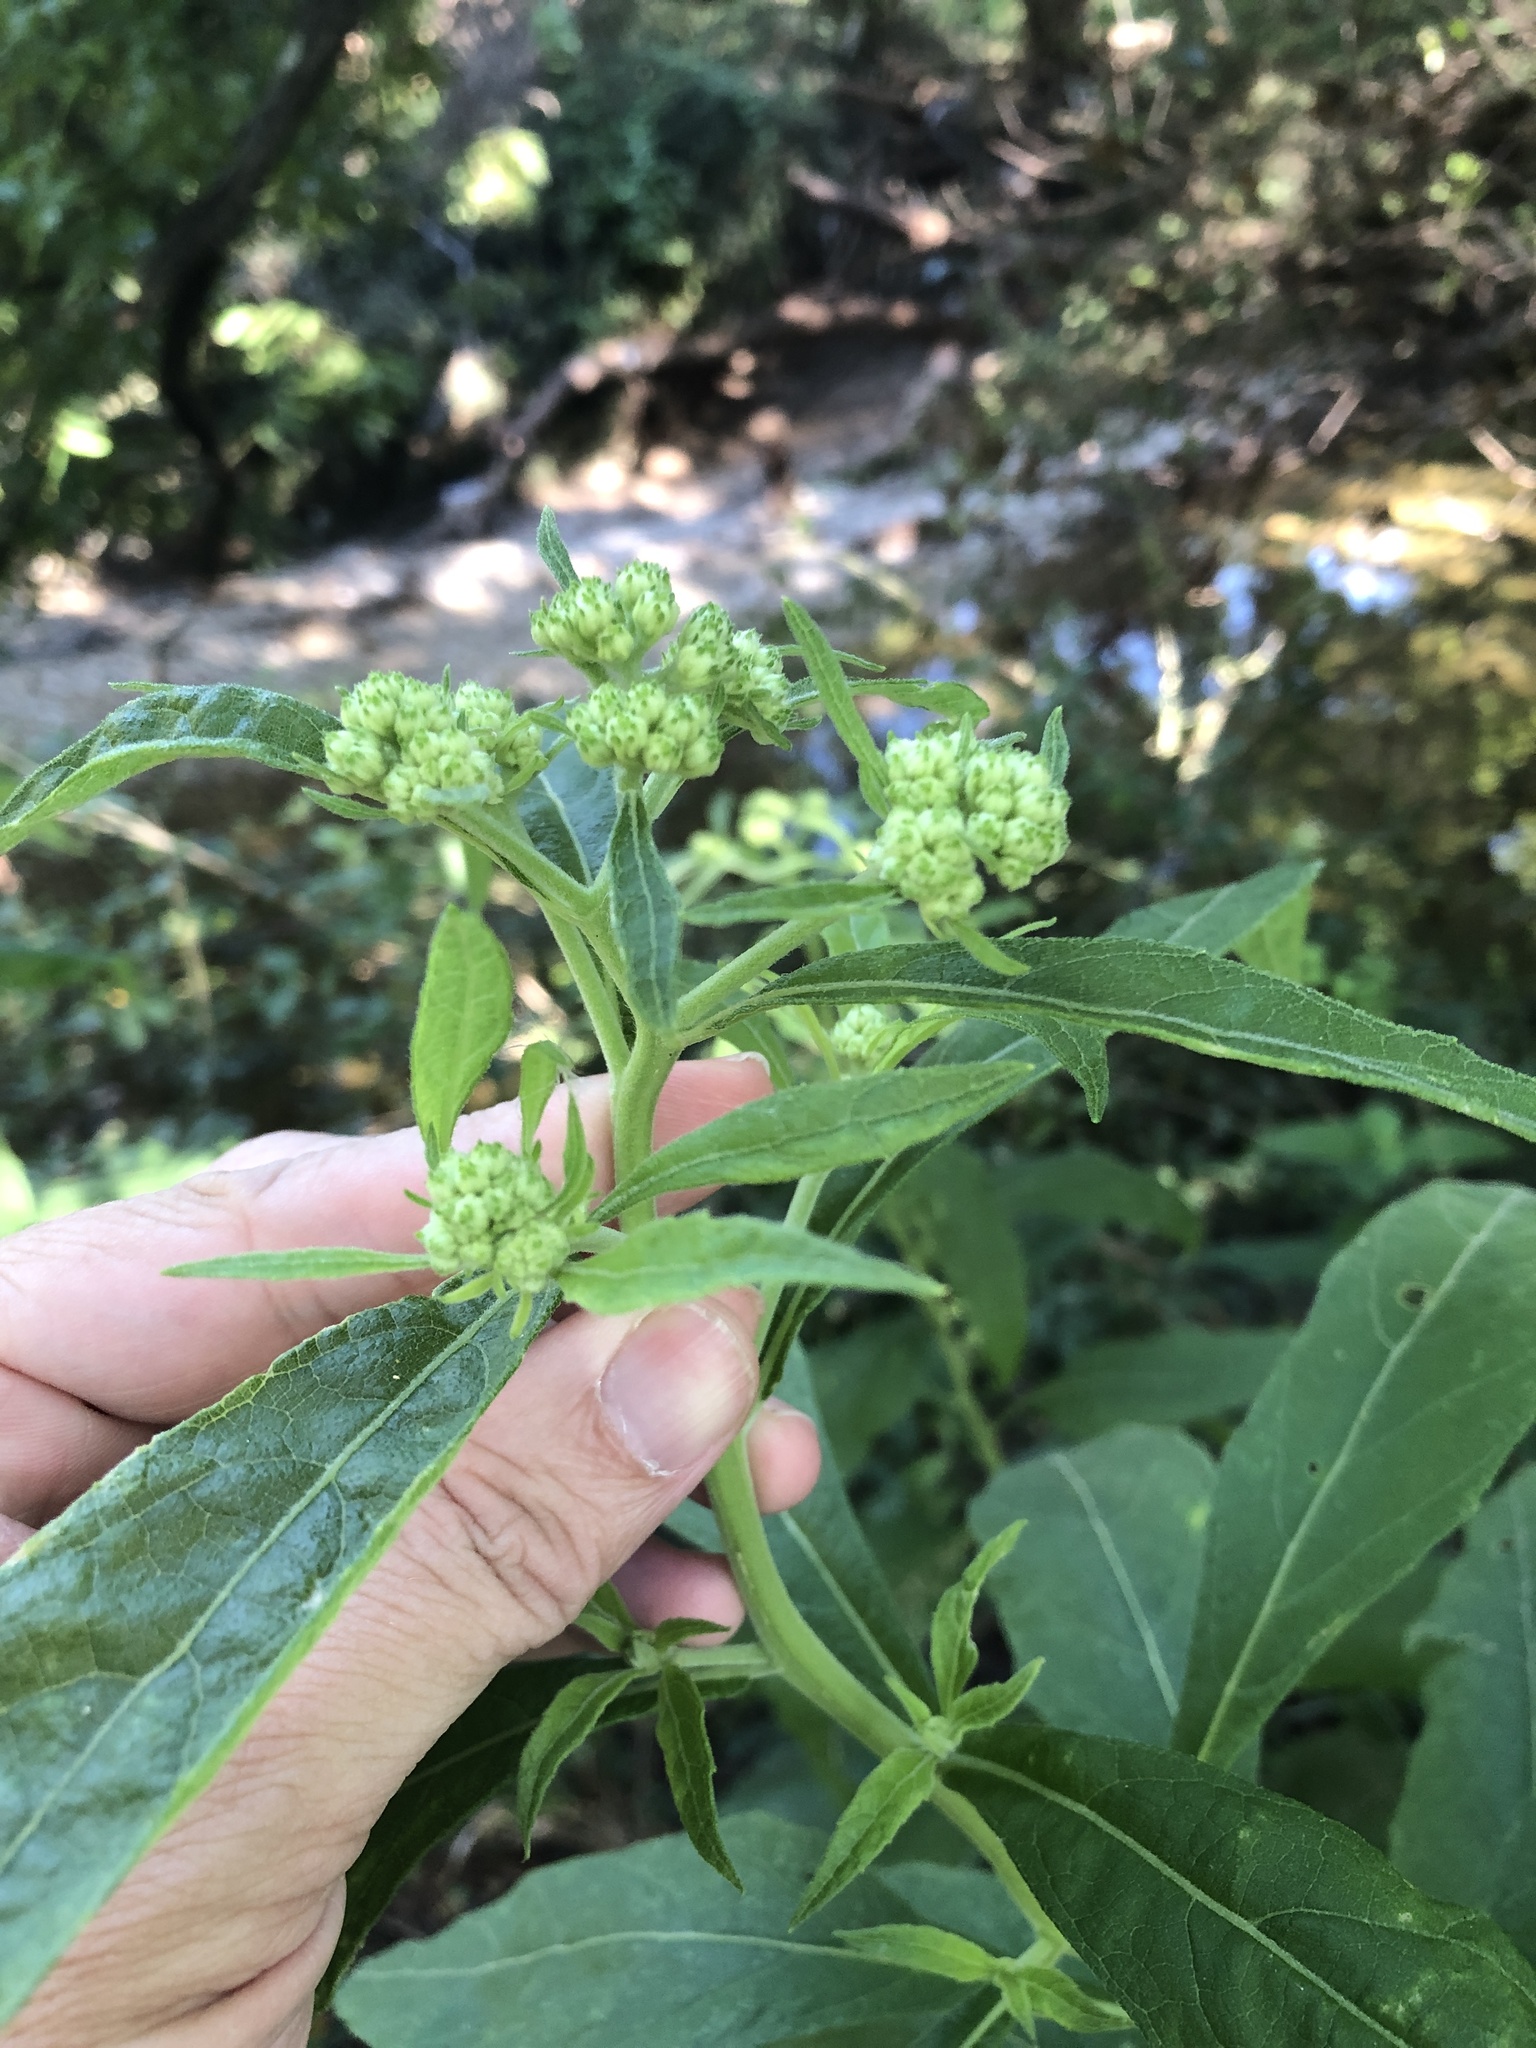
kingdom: Plantae
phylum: Tracheophyta
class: Magnoliopsida
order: Asterales
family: Asteraceae
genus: Verbesina
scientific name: Verbesina virginica
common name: Frostweed
